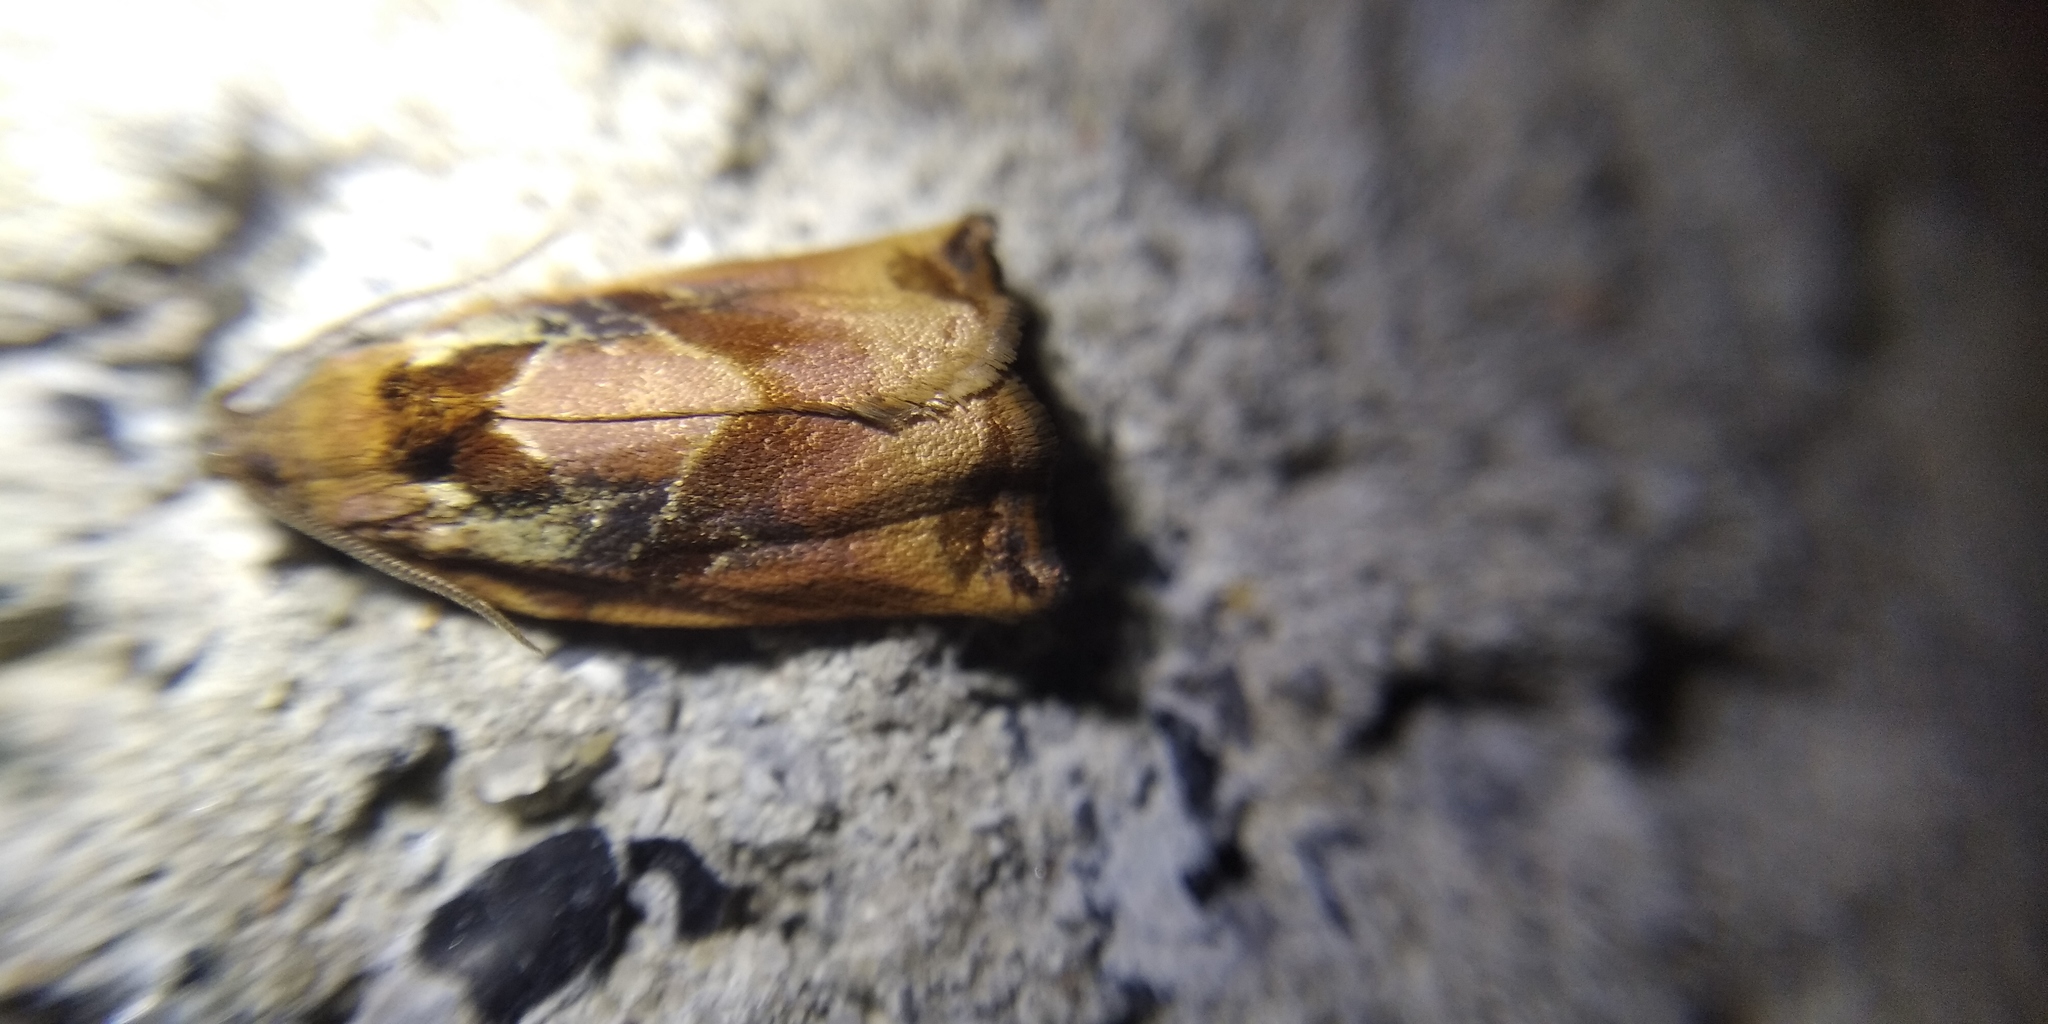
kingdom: Animalia
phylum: Arthropoda
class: Insecta
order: Lepidoptera
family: Tortricidae
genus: Archips
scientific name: Archips podana
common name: Large fruit-tree tortrix
